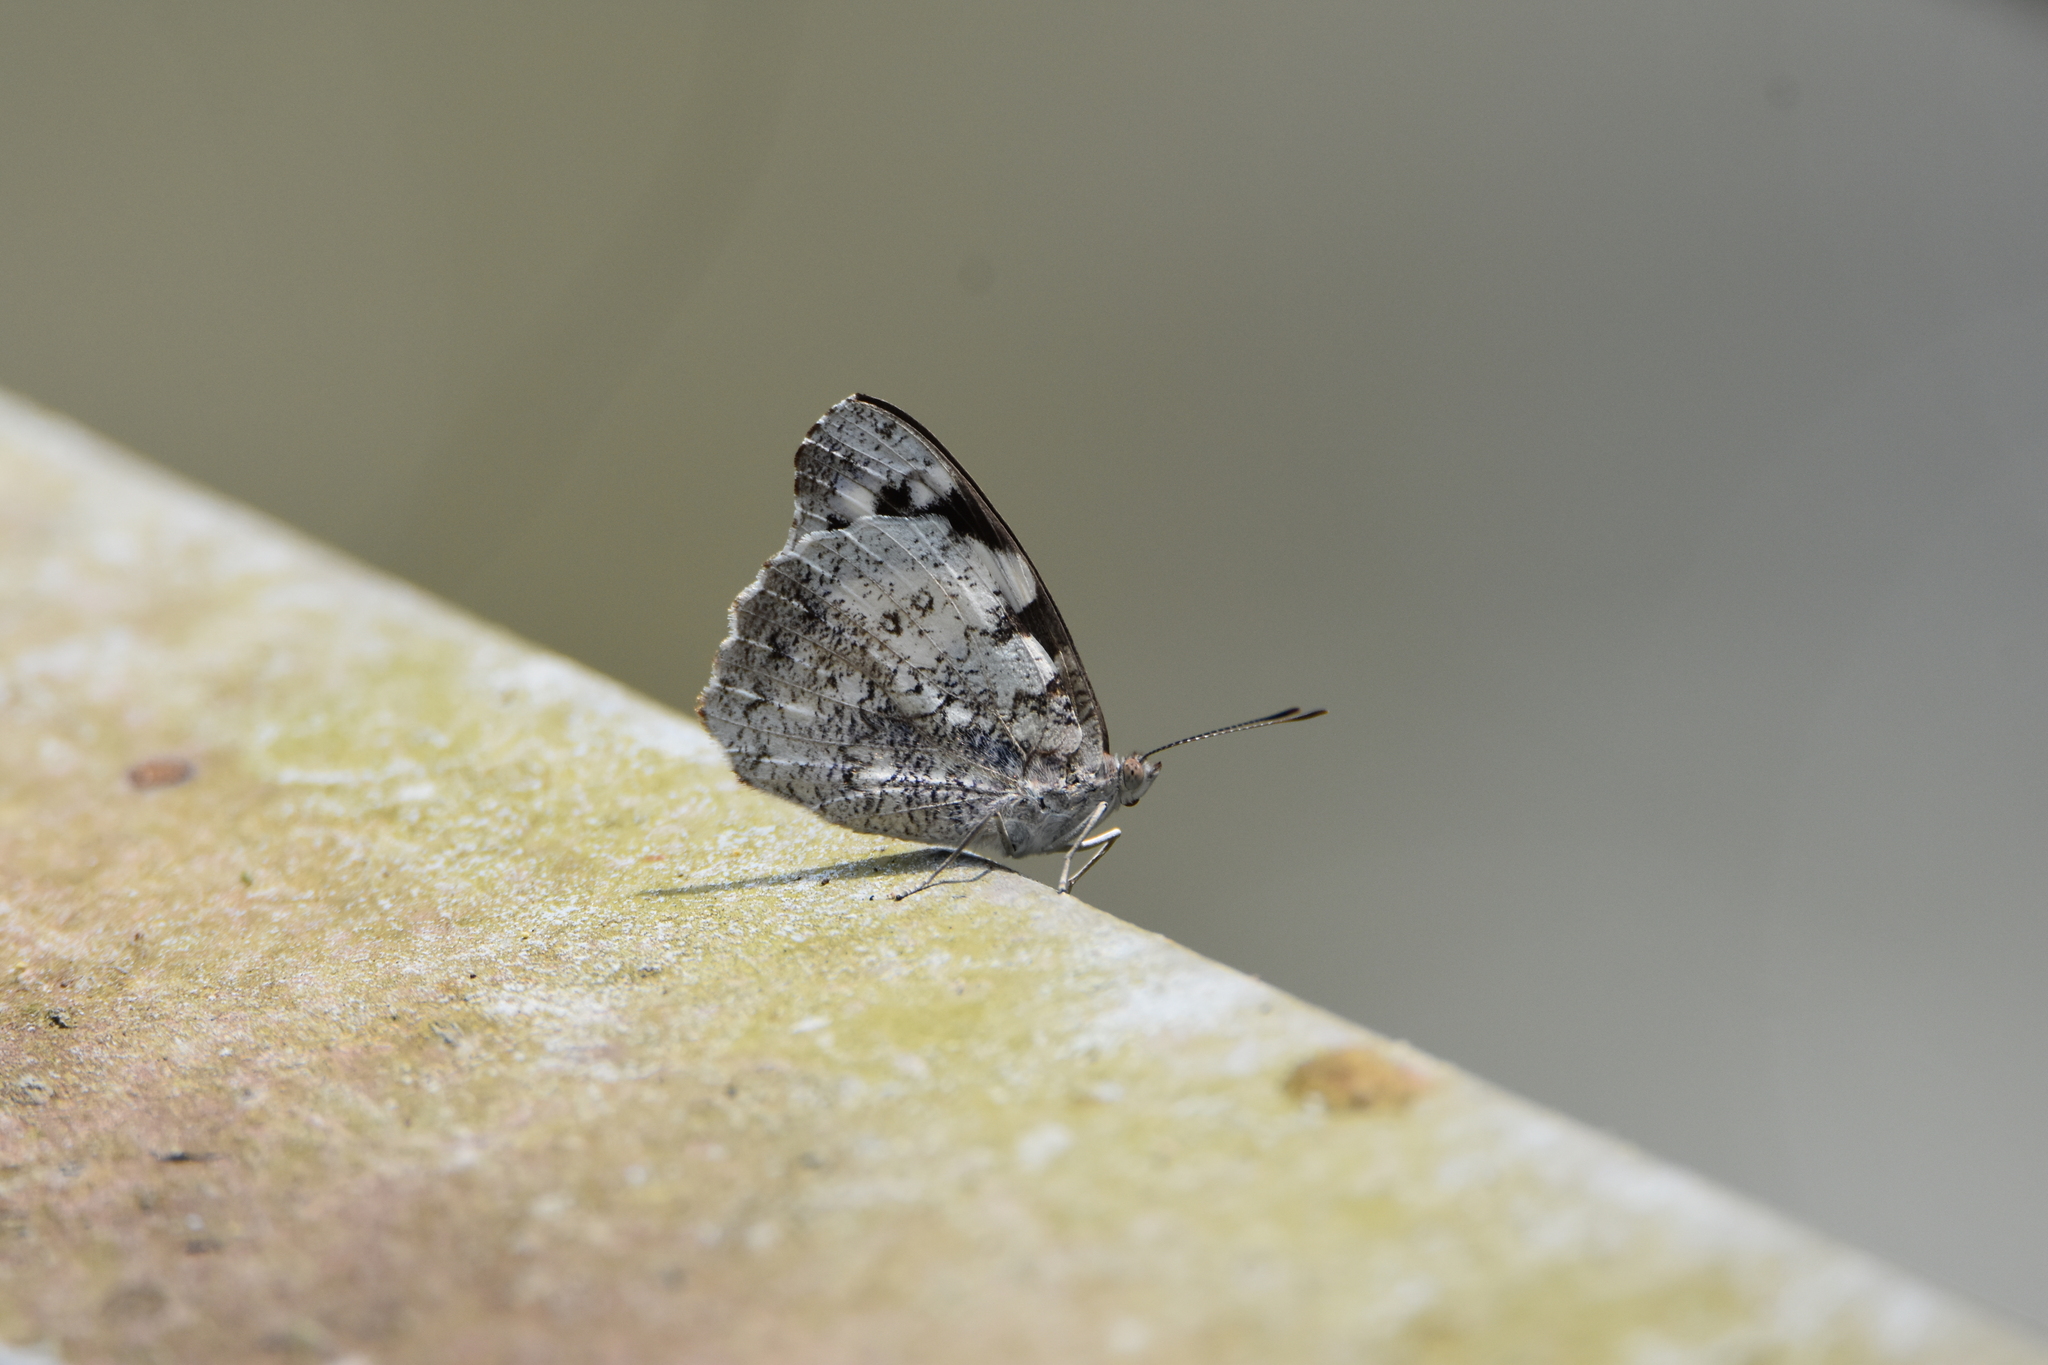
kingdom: Animalia
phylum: Arthropoda
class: Insecta
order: Lepidoptera
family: Nymphalidae
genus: Eunica
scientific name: Eunica margarita
